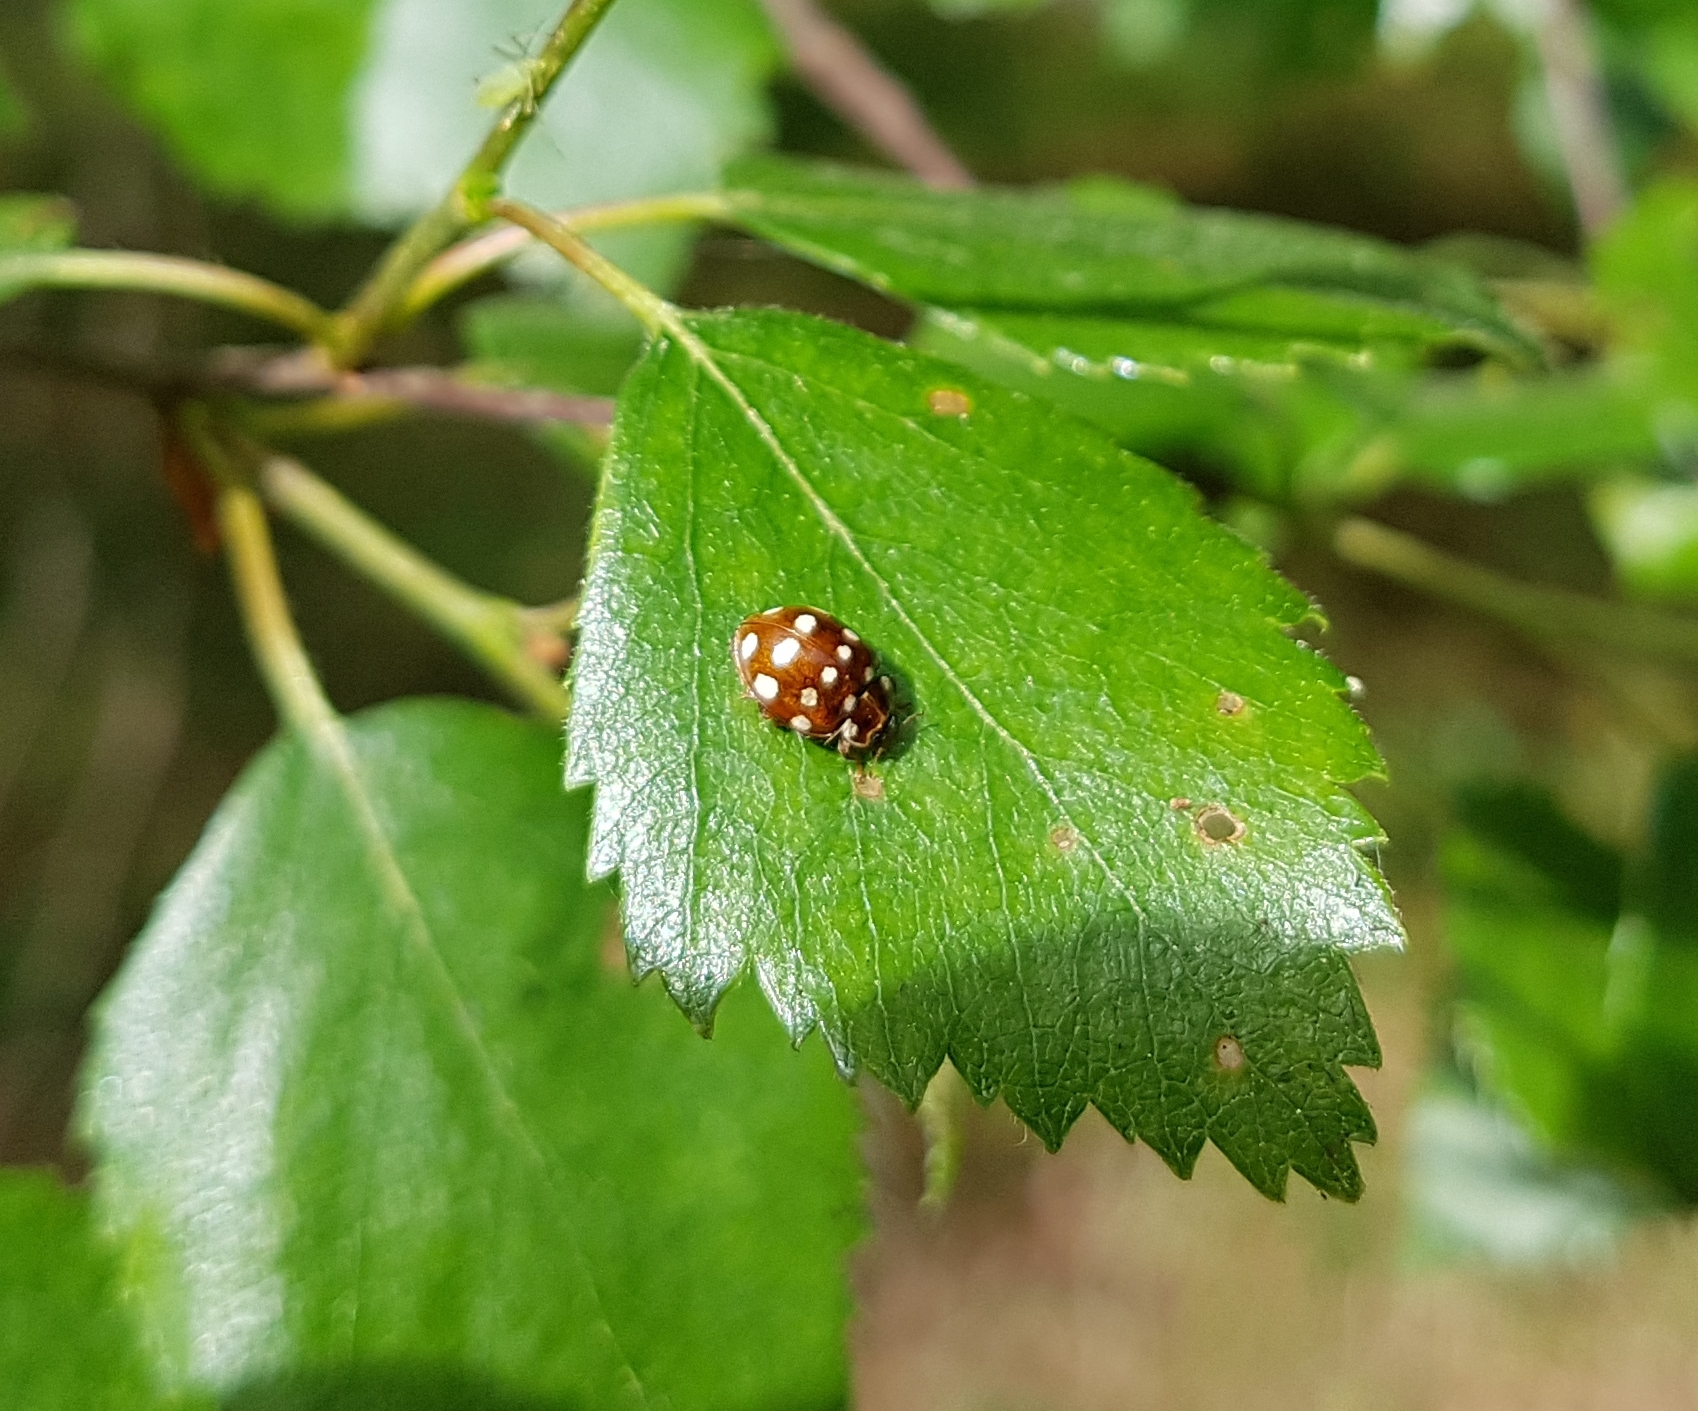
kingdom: Animalia
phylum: Arthropoda
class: Insecta
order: Coleoptera
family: Coccinellidae
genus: Calvia
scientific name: Calvia quatuordecimguttata
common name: Cream-spot ladybird
